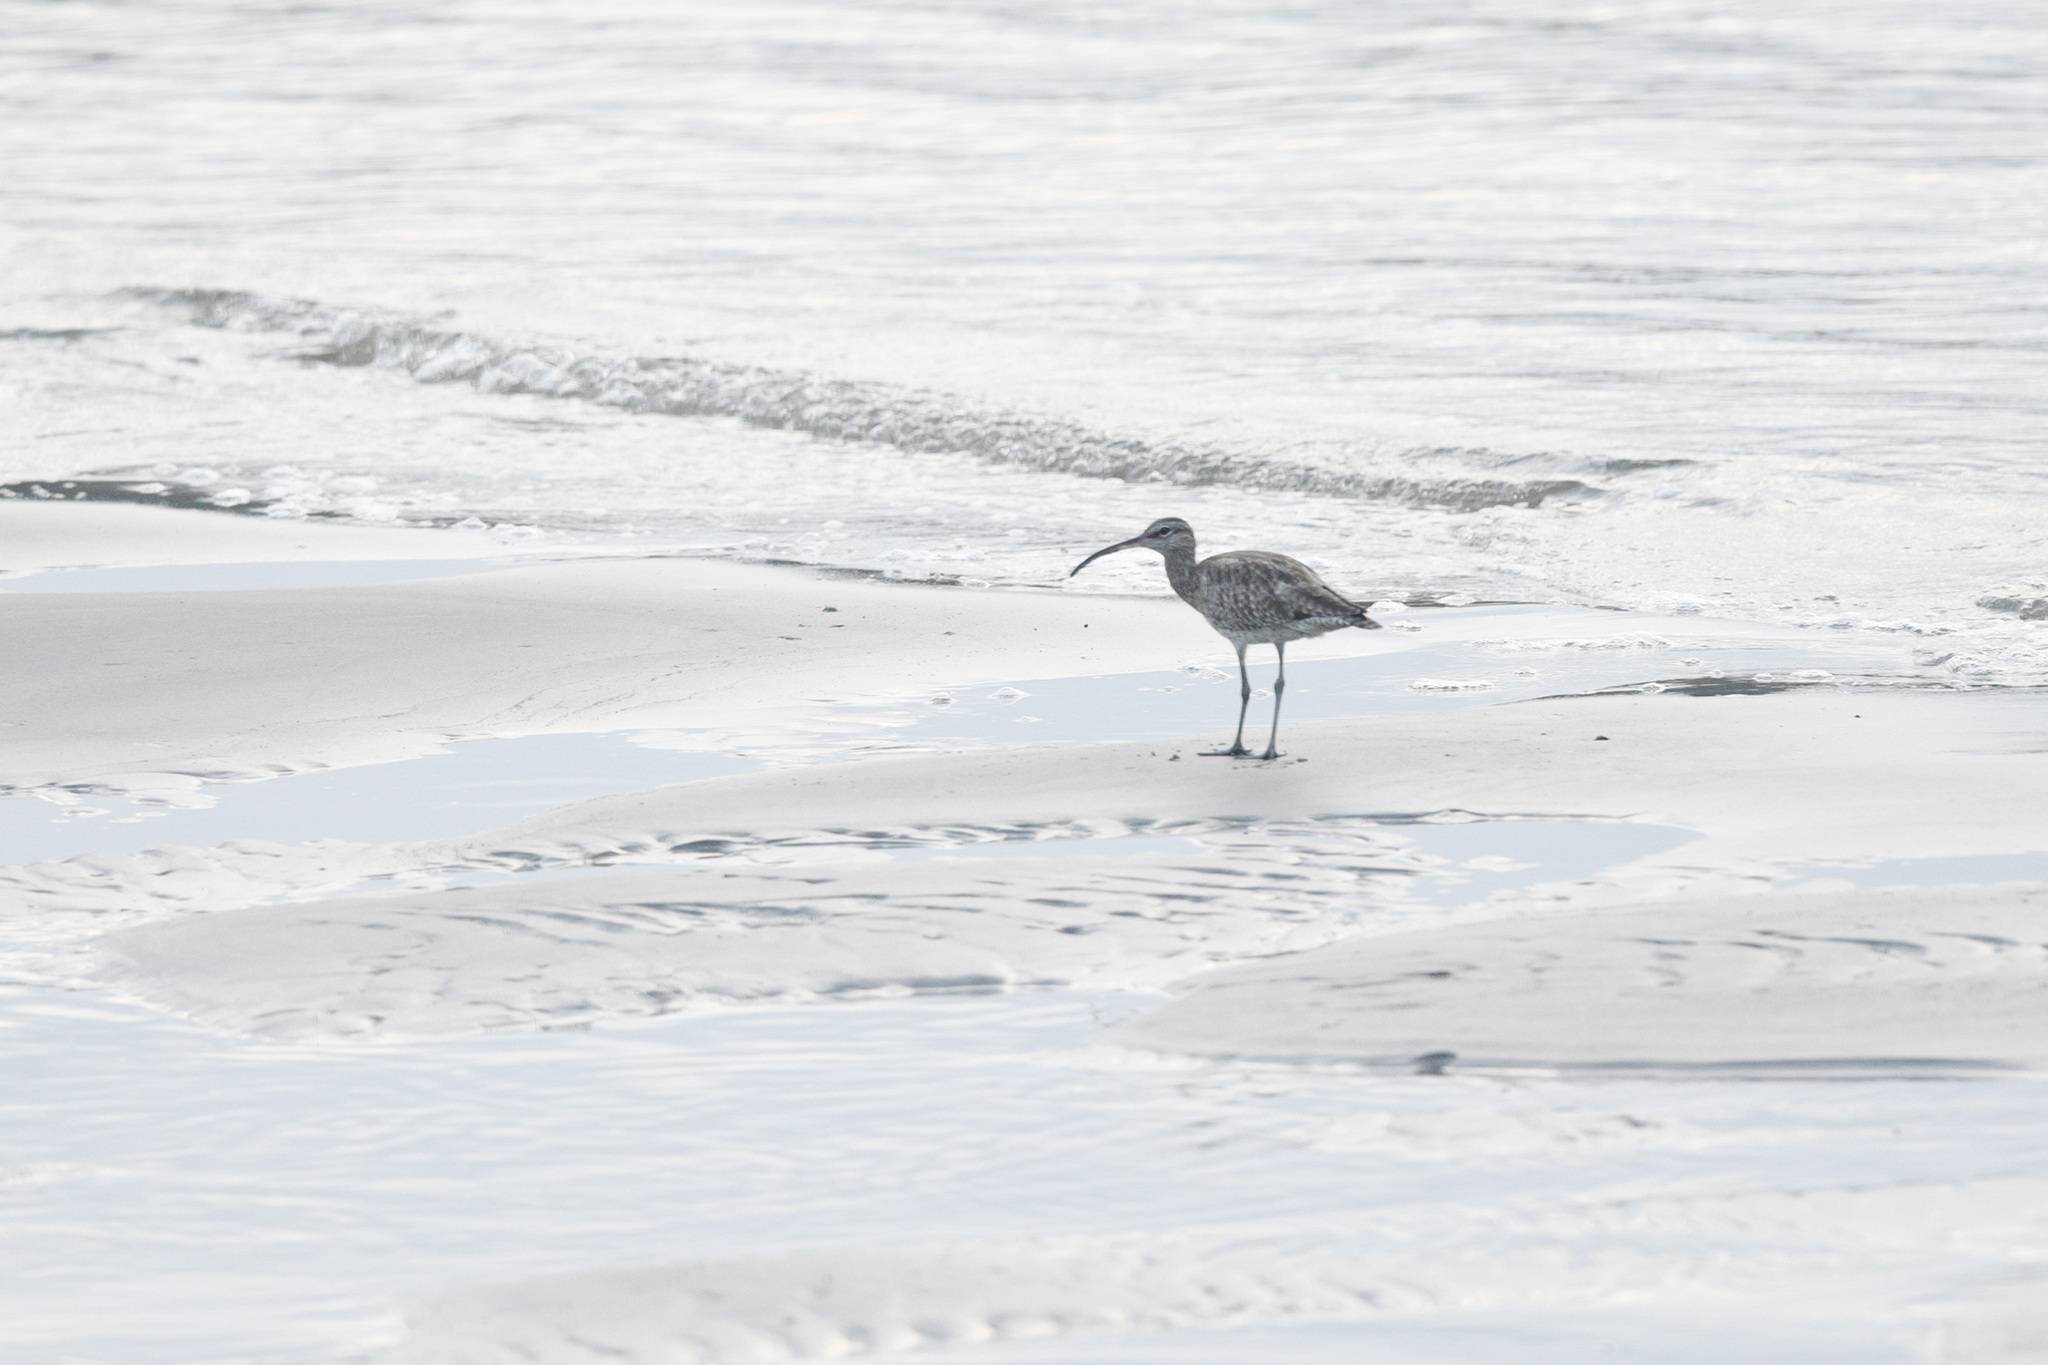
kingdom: Animalia
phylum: Chordata
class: Aves
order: Charadriiformes
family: Scolopacidae
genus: Numenius
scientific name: Numenius phaeopus
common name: Whimbrel
